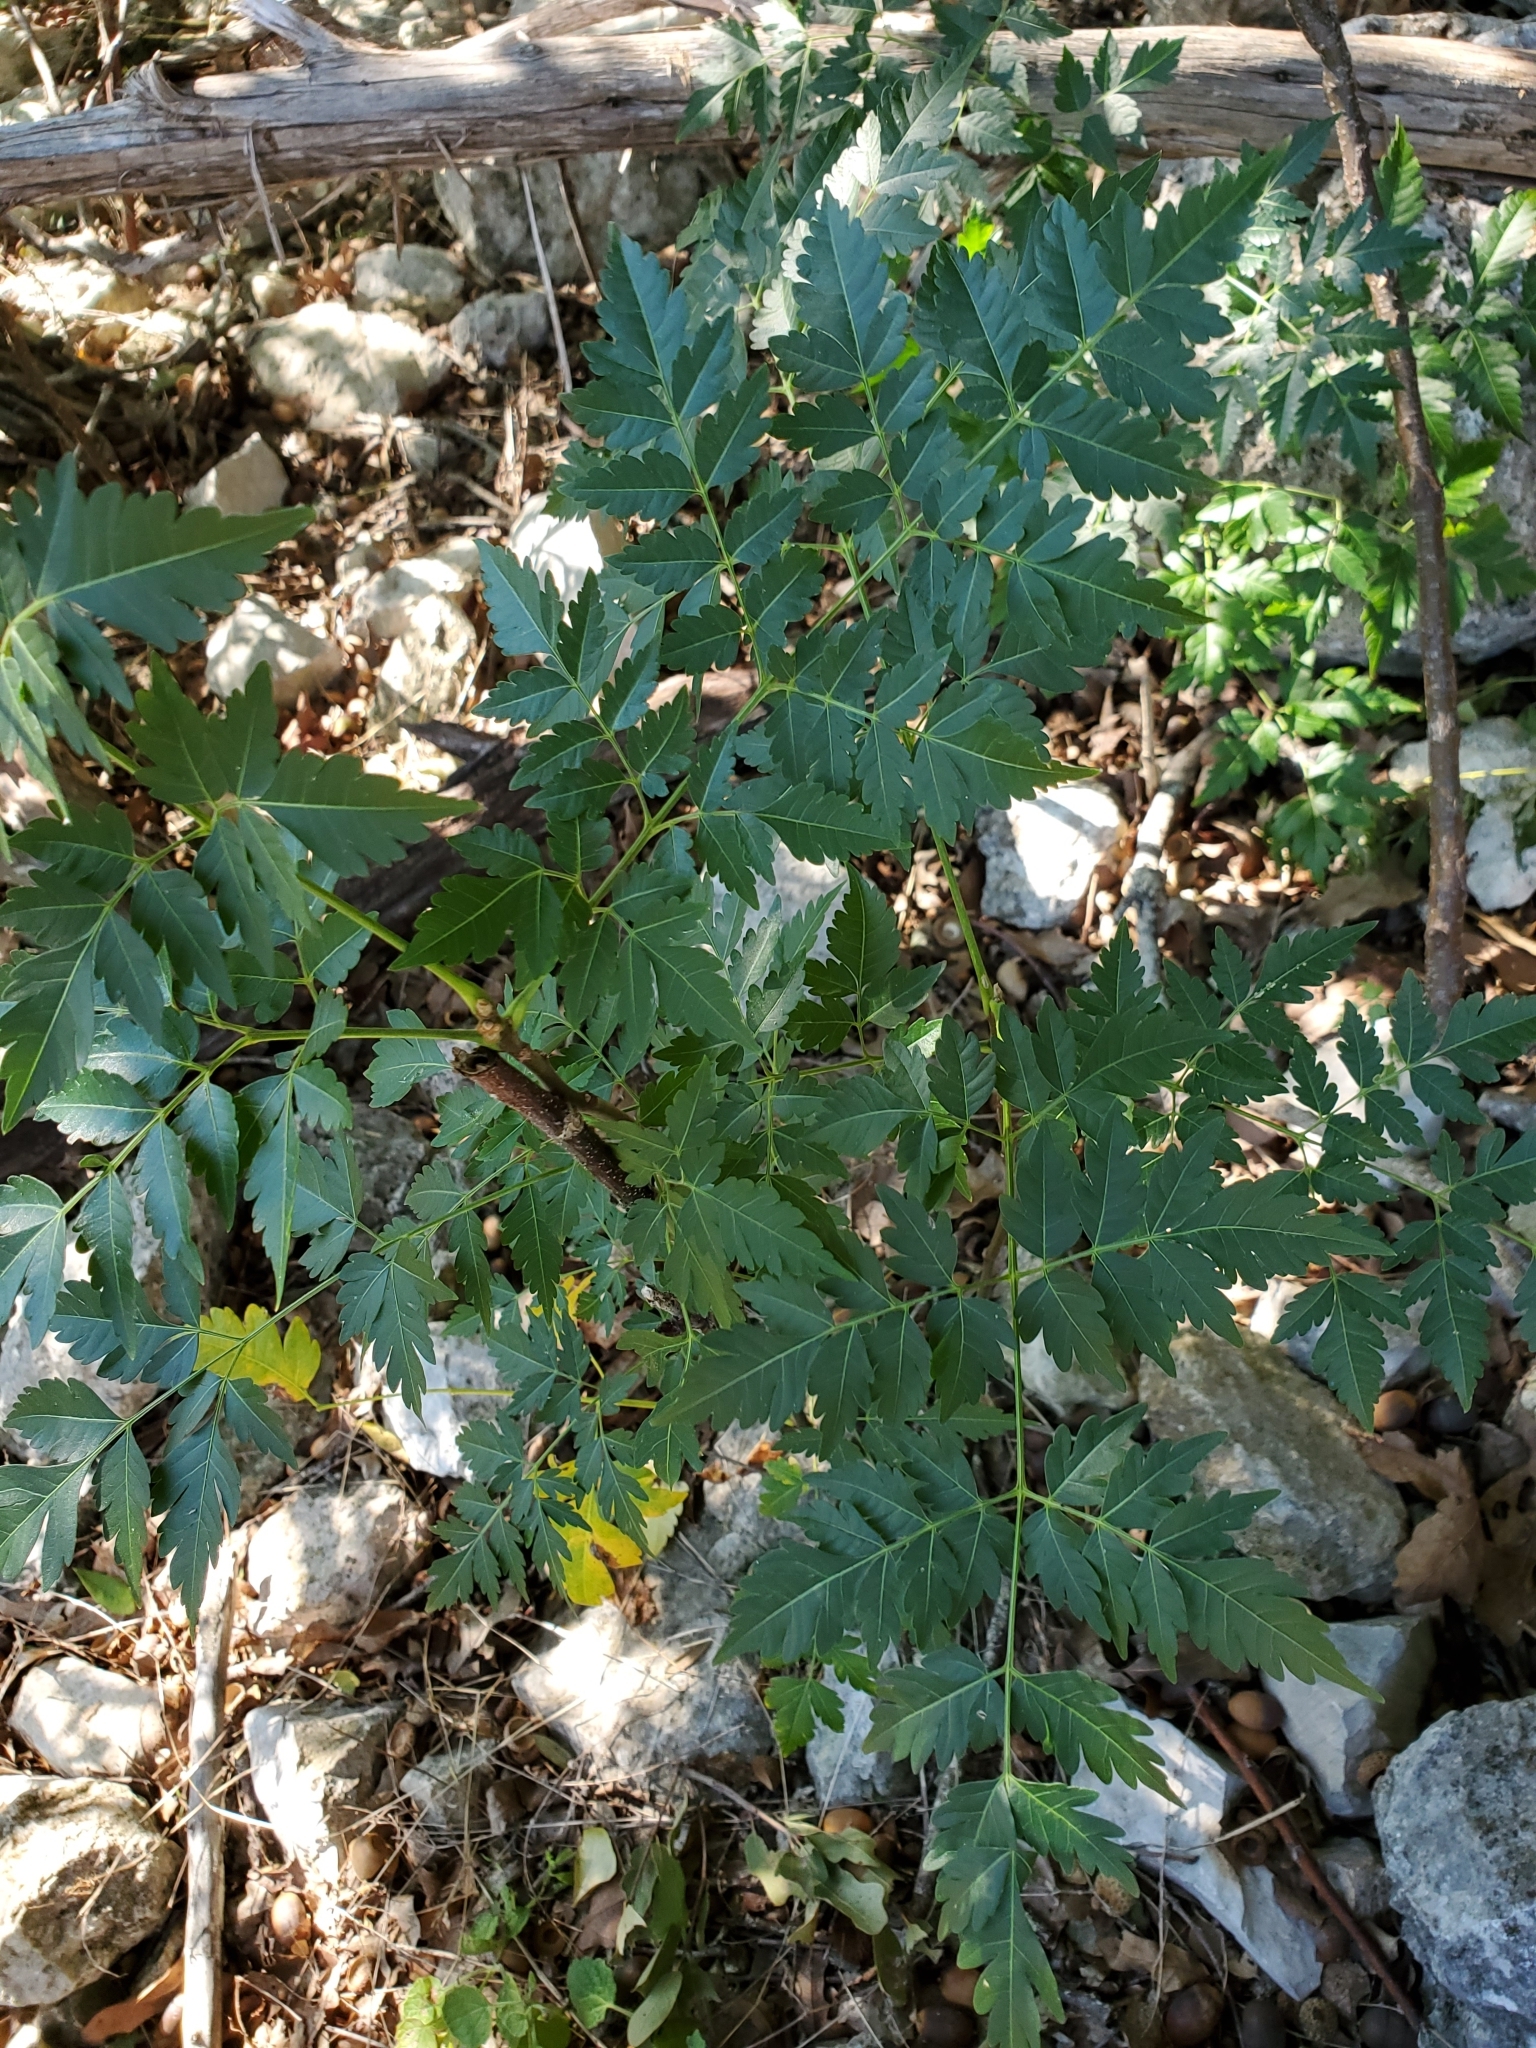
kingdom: Plantae
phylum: Tracheophyta
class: Magnoliopsida
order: Sapindales
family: Meliaceae
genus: Melia
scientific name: Melia azedarach
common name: Chinaberrytree
